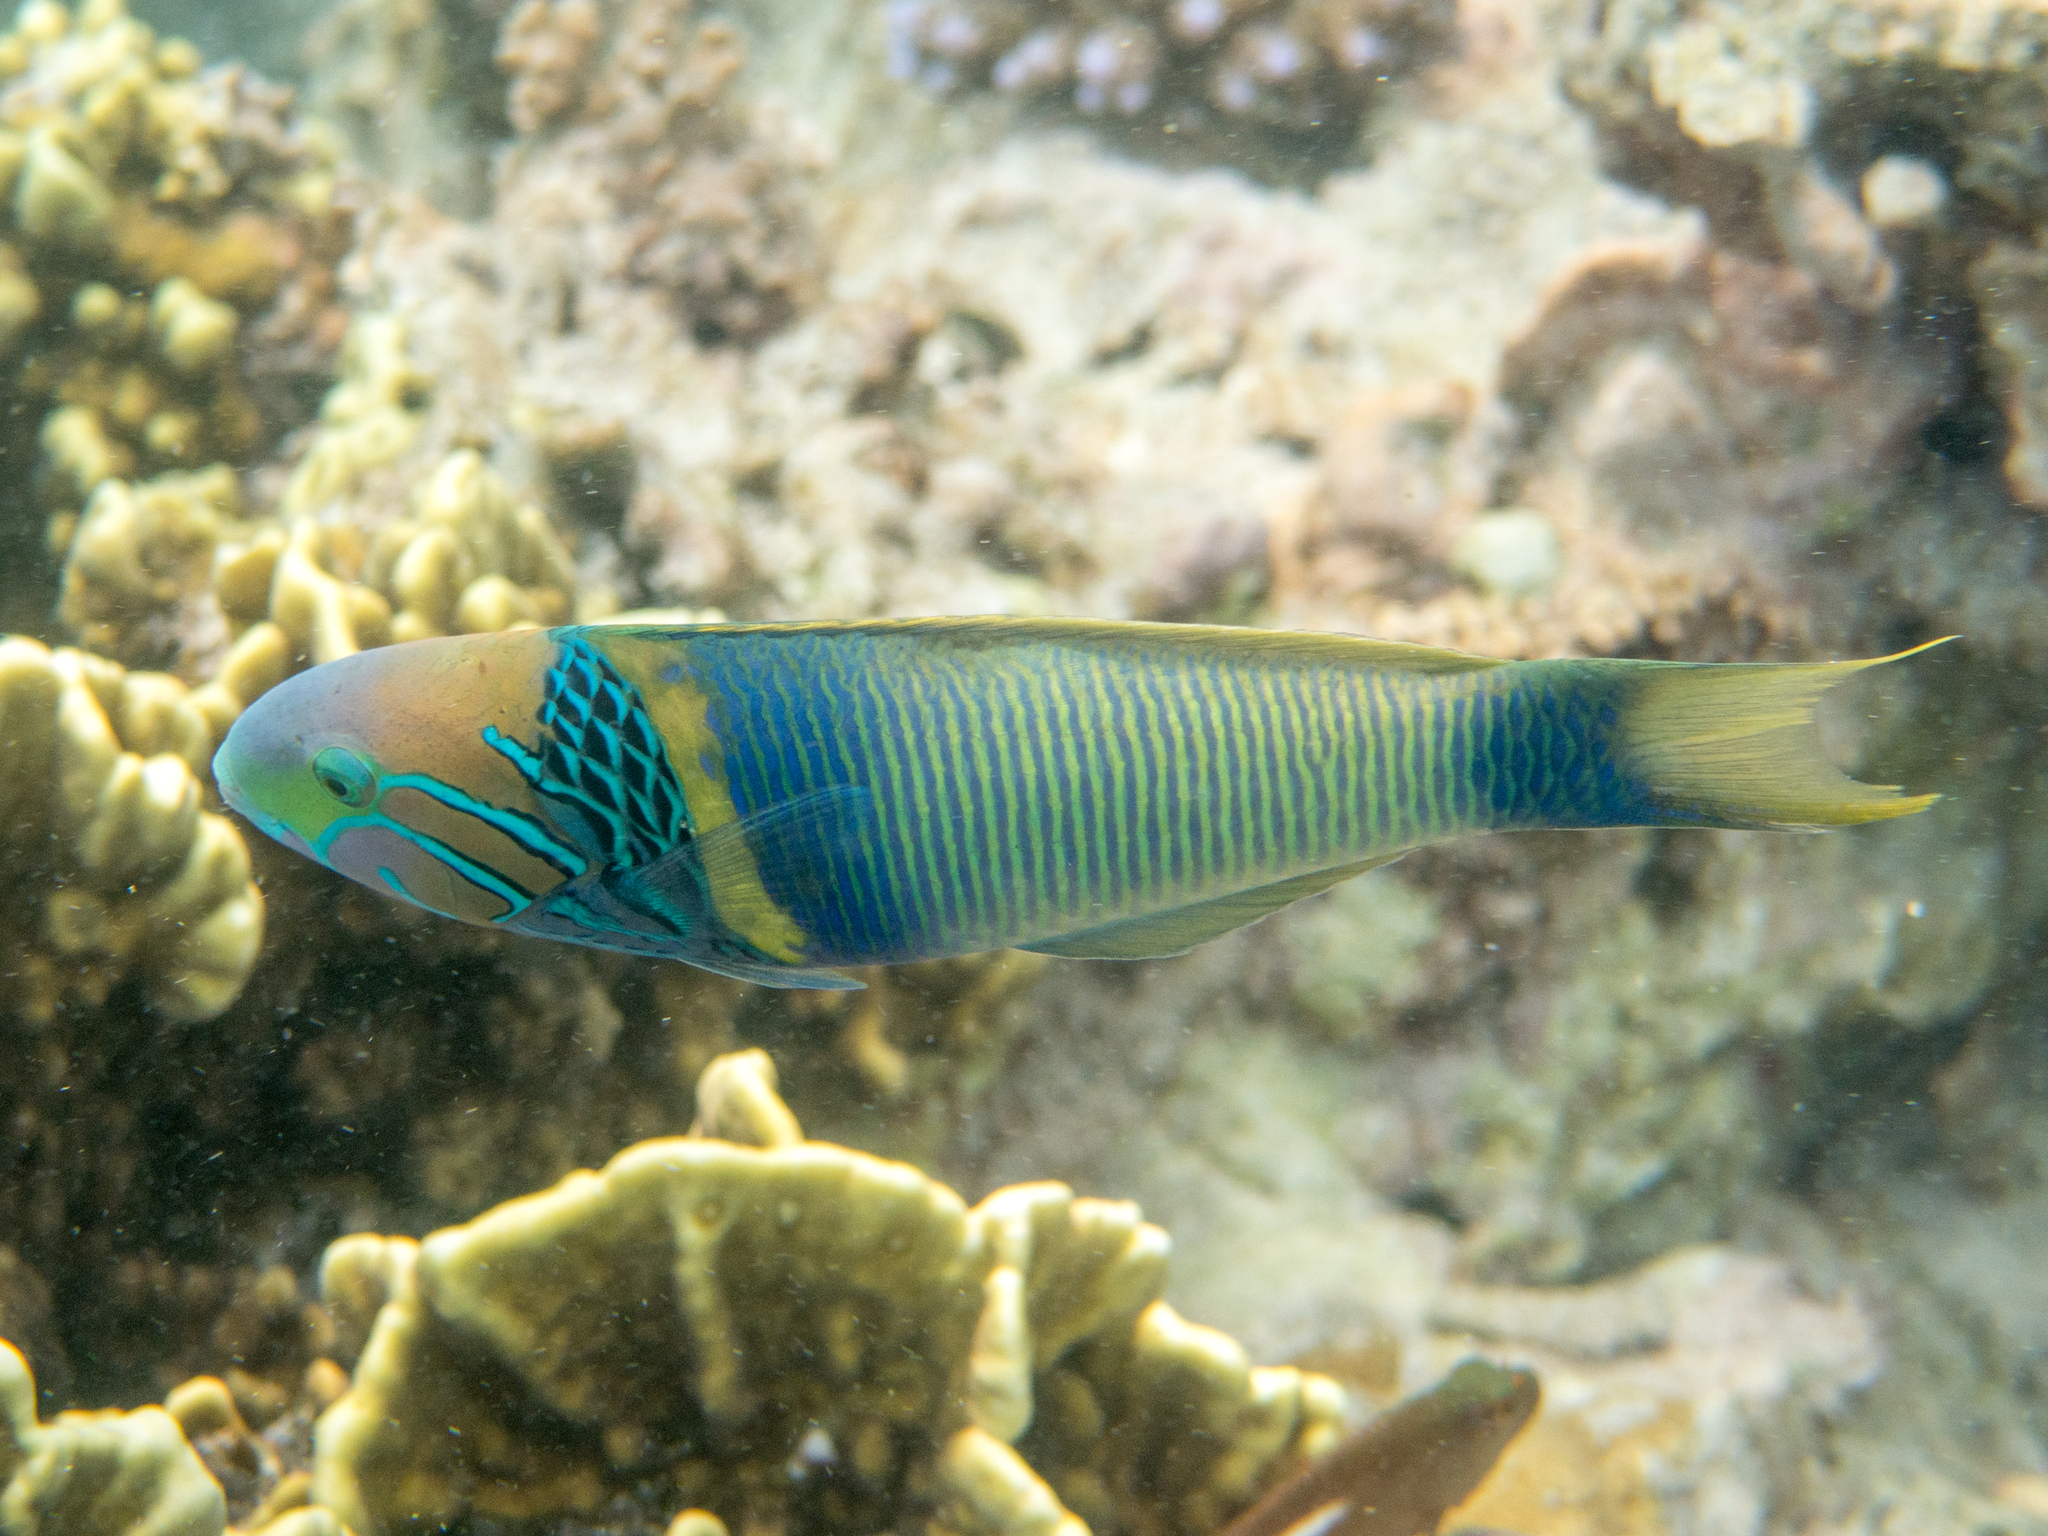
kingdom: Animalia
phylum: Chordata
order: Perciformes
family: Labridae
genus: Thalassoma
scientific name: Thalassoma hebraicum
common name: Goldbar wrasse
